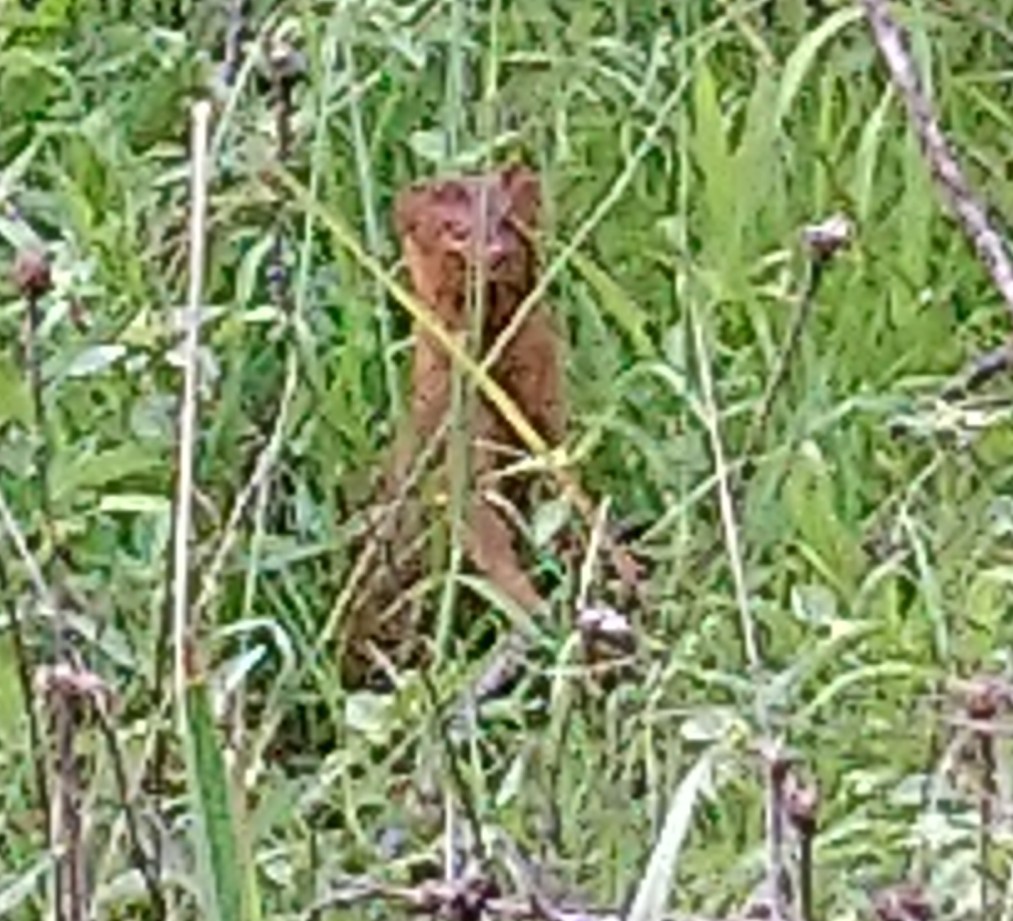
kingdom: Animalia
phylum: Chordata
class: Mammalia
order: Carnivora
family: Herpestidae
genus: Galerella
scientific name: Galerella sanguinea
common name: Slender mongoose
